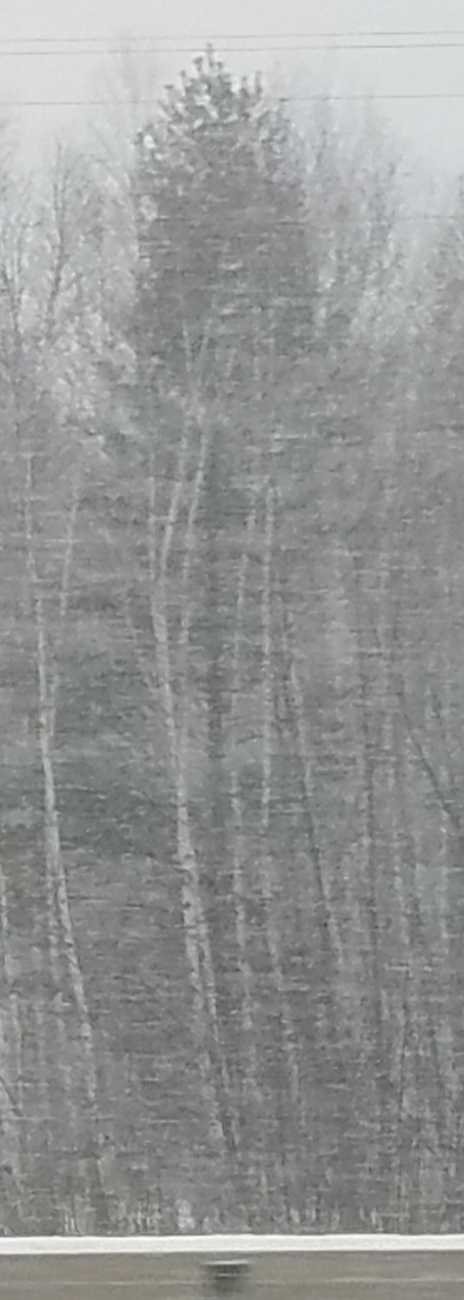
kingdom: Plantae
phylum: Tracheophyta
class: Pinopsida
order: Pinales
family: Pinaceae
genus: Pinus
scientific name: Pinus strobus
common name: Weymouth pine
